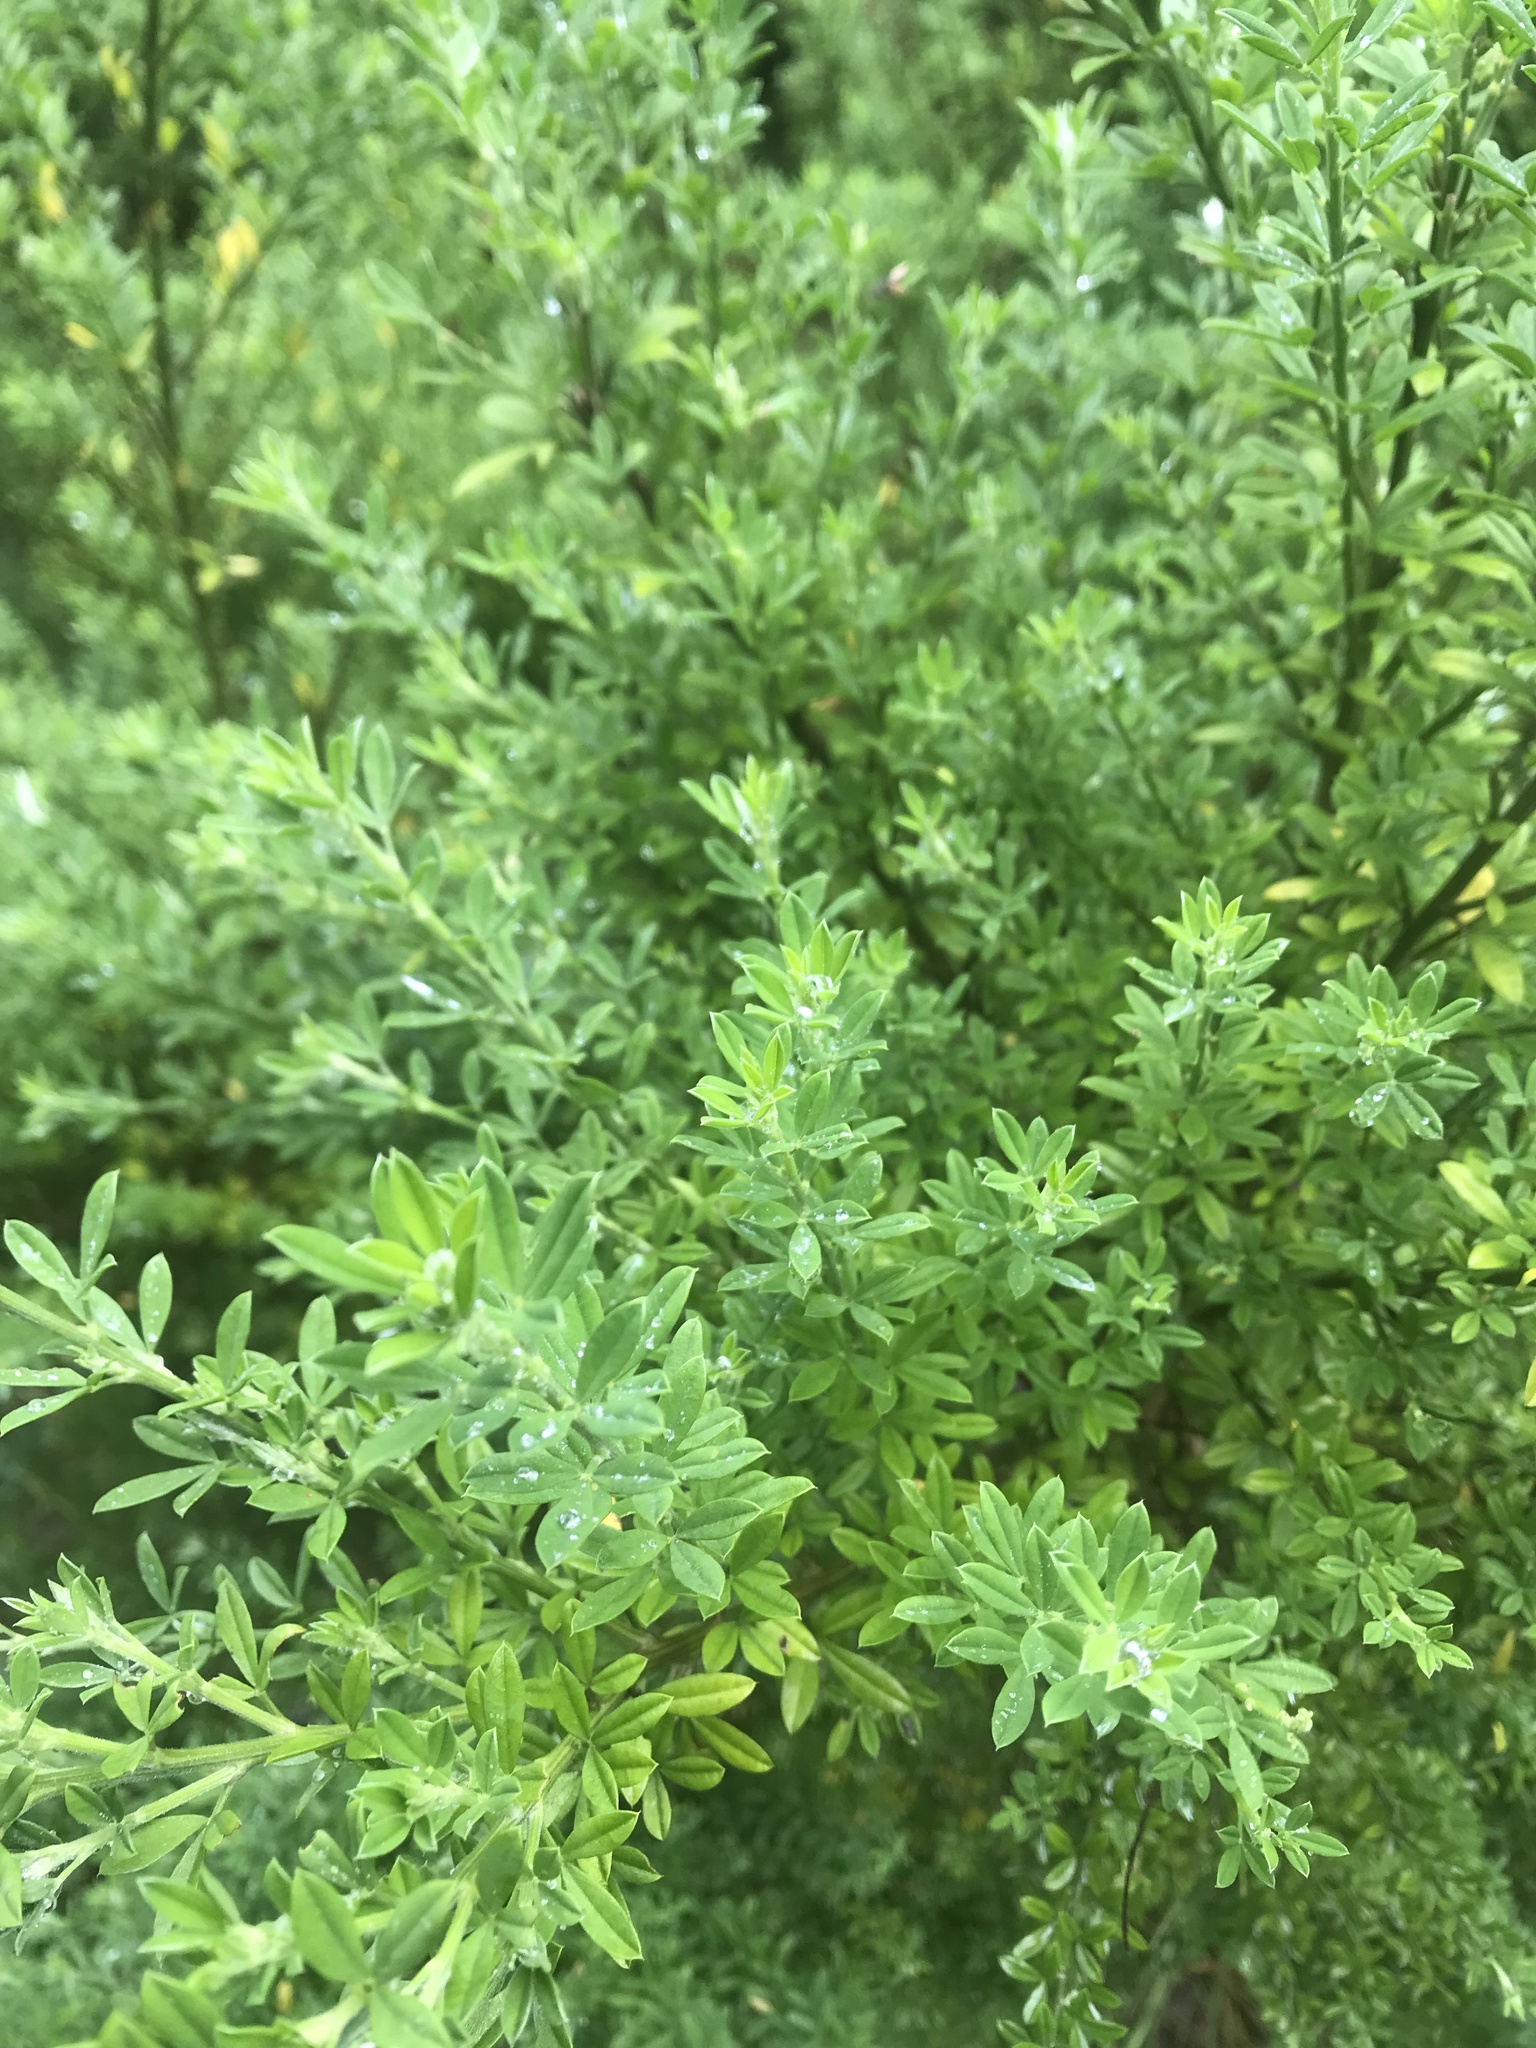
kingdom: Plantae
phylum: Tracheophyta
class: Magnoliopsida
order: Fabales
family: Fabaceae
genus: Lespedeza
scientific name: Lespedeza cuneata
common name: Chinese bush-clover
